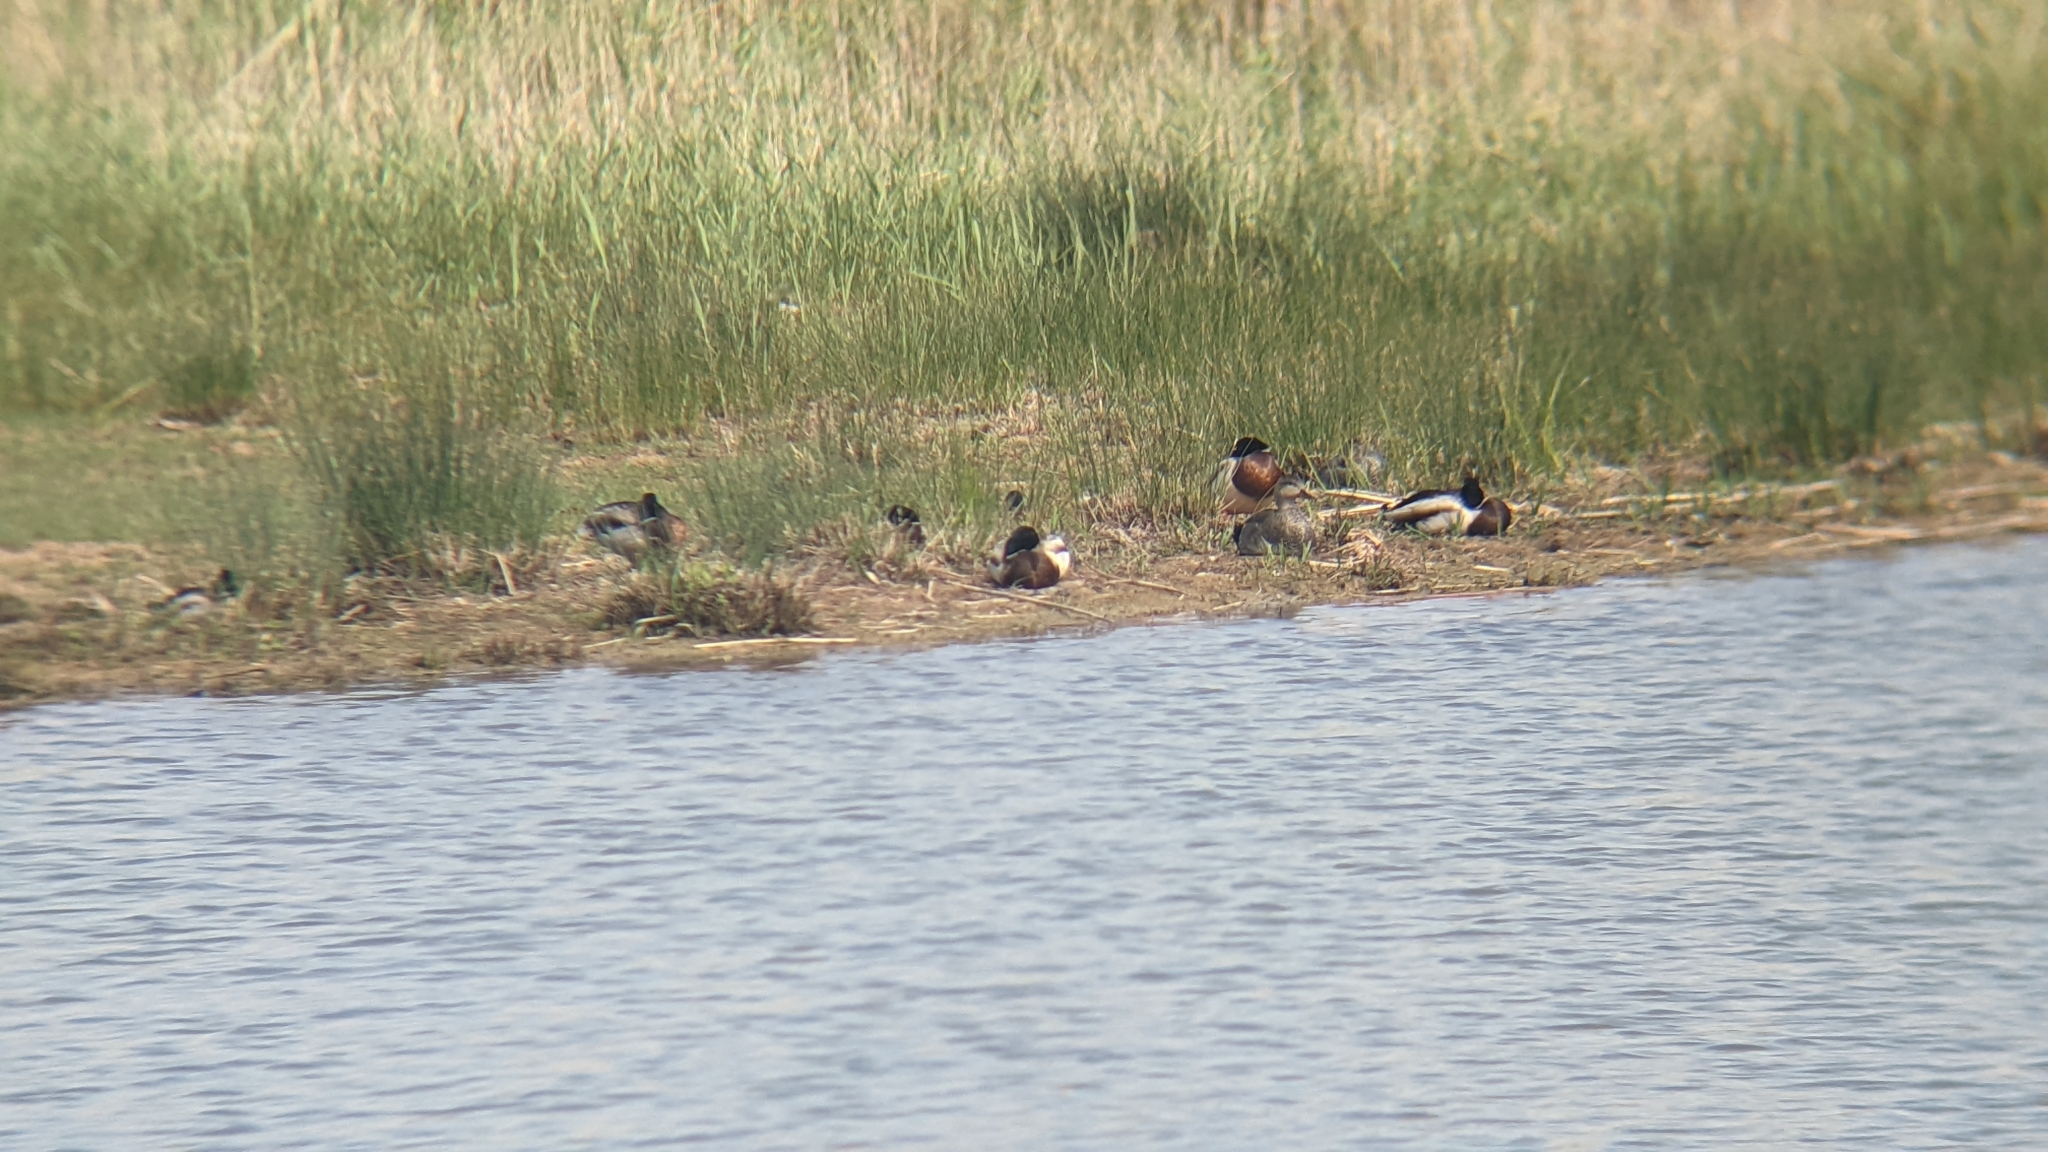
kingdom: Animalia
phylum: Chordata
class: Aves
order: Anseriformes
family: Anatidae
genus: Anas
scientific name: Anas platyrhynchos
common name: Mallard
